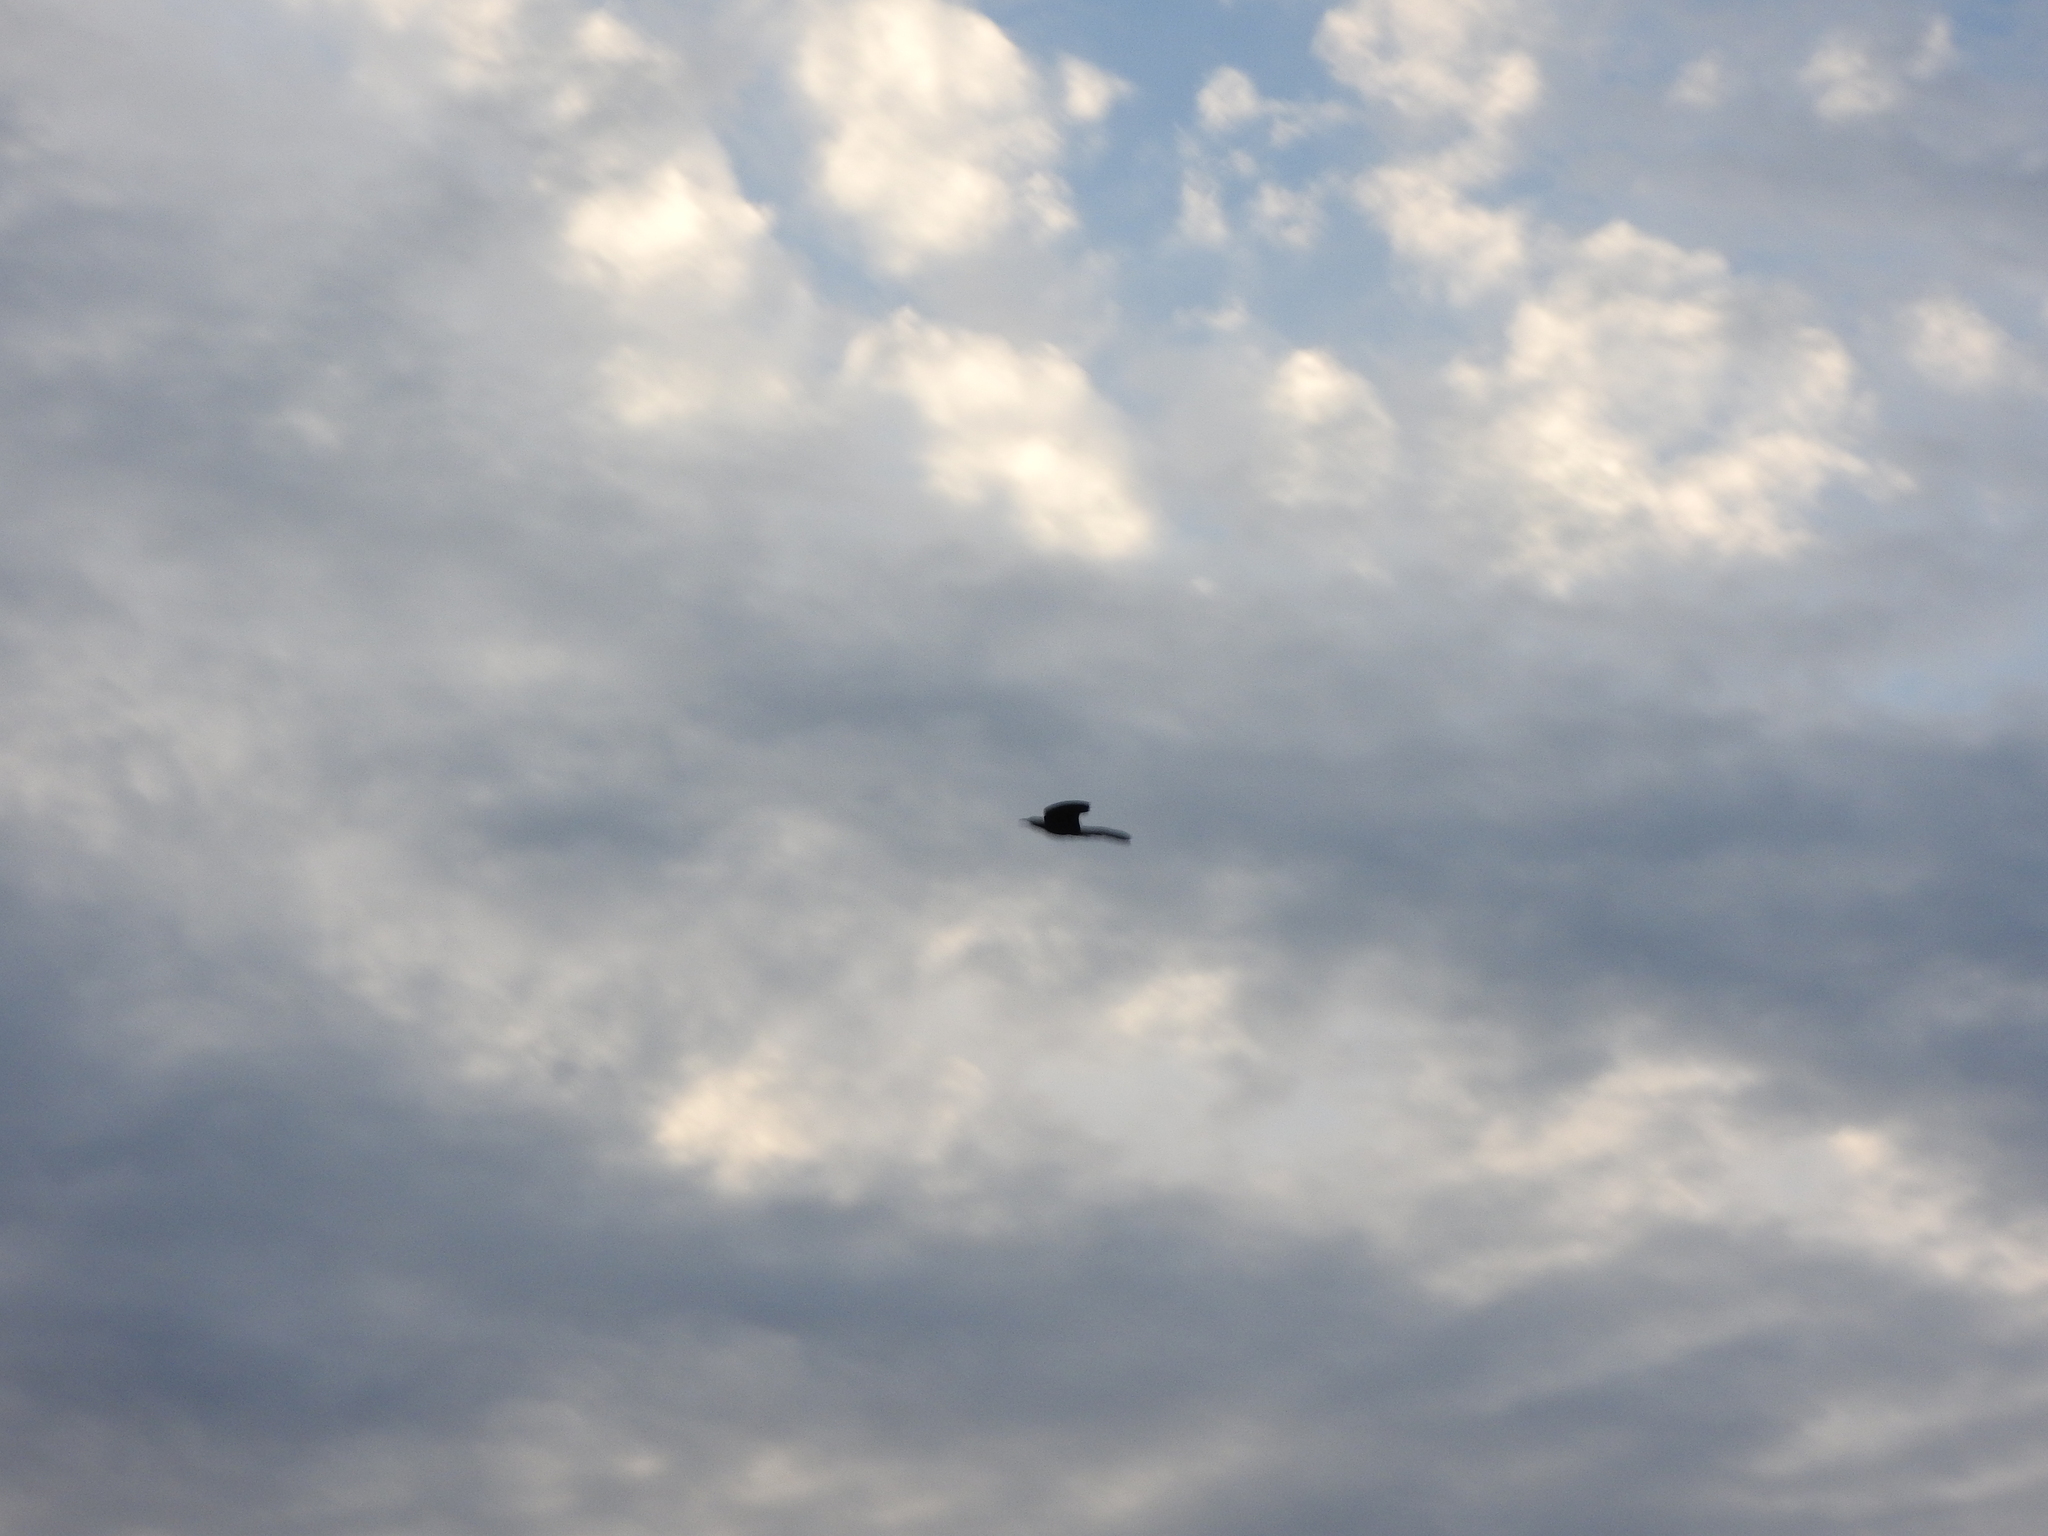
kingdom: Animalia
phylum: Chordata
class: Aves
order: Passeriformes
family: Icteridae
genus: Quiscalus
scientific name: Quiscalus mexicanus
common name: Great-tailed grackle
